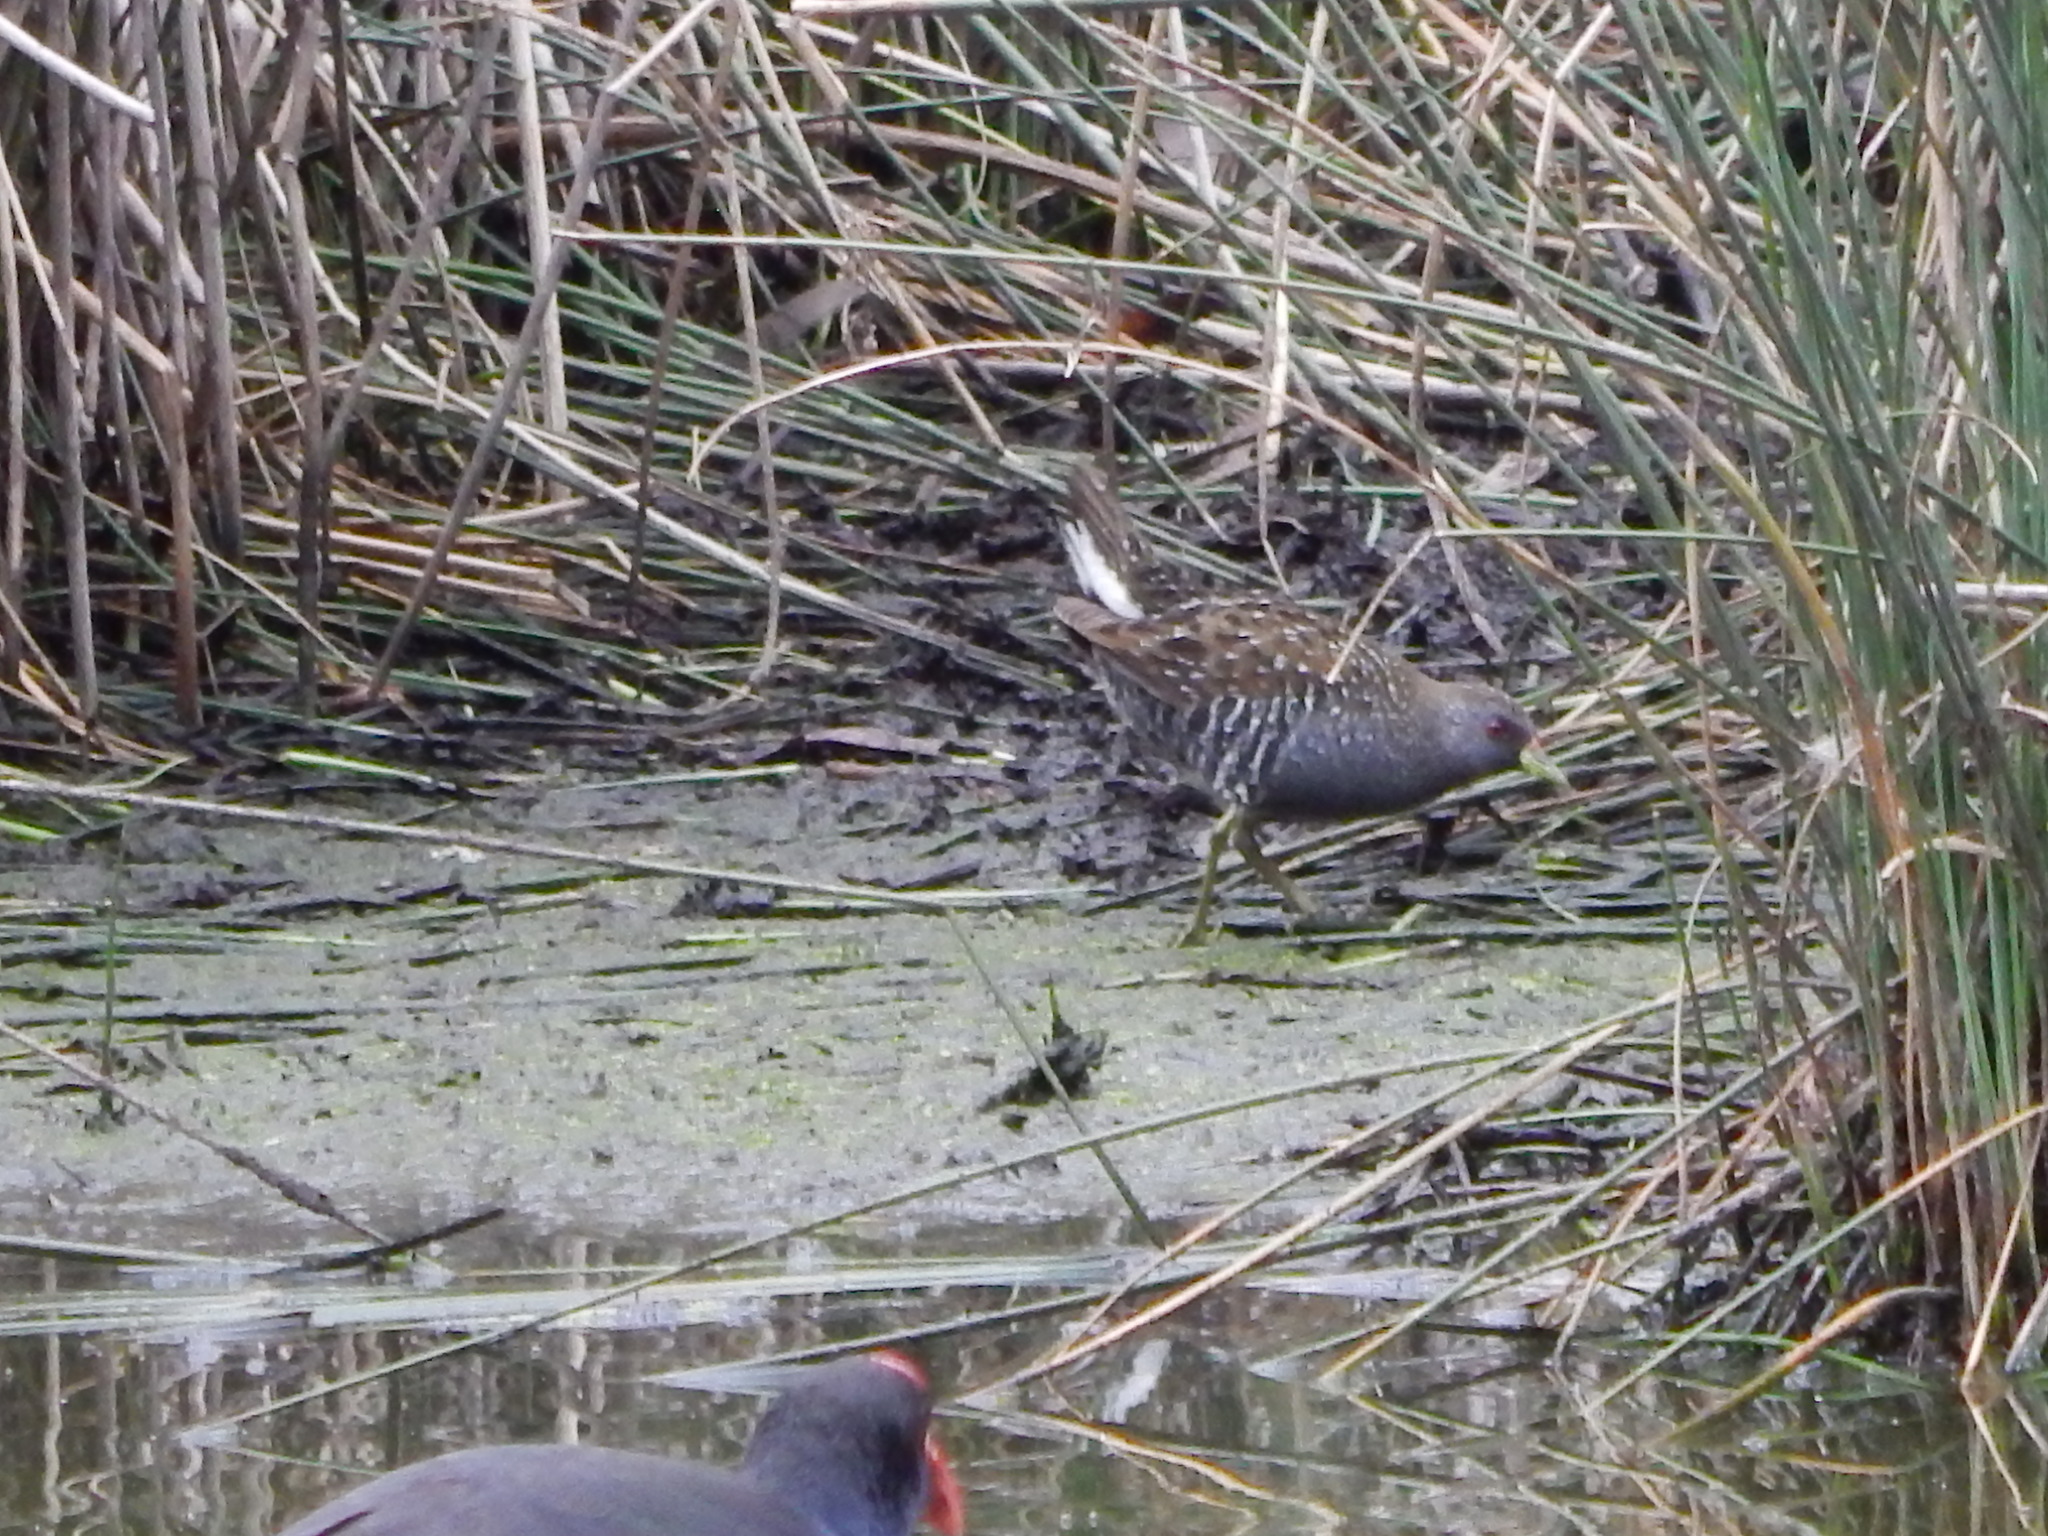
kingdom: Animalia
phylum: Chordata
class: Aves
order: Gruiformes
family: Rallidae
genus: Porzana
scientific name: Porzana fluminea
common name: Australian crake
